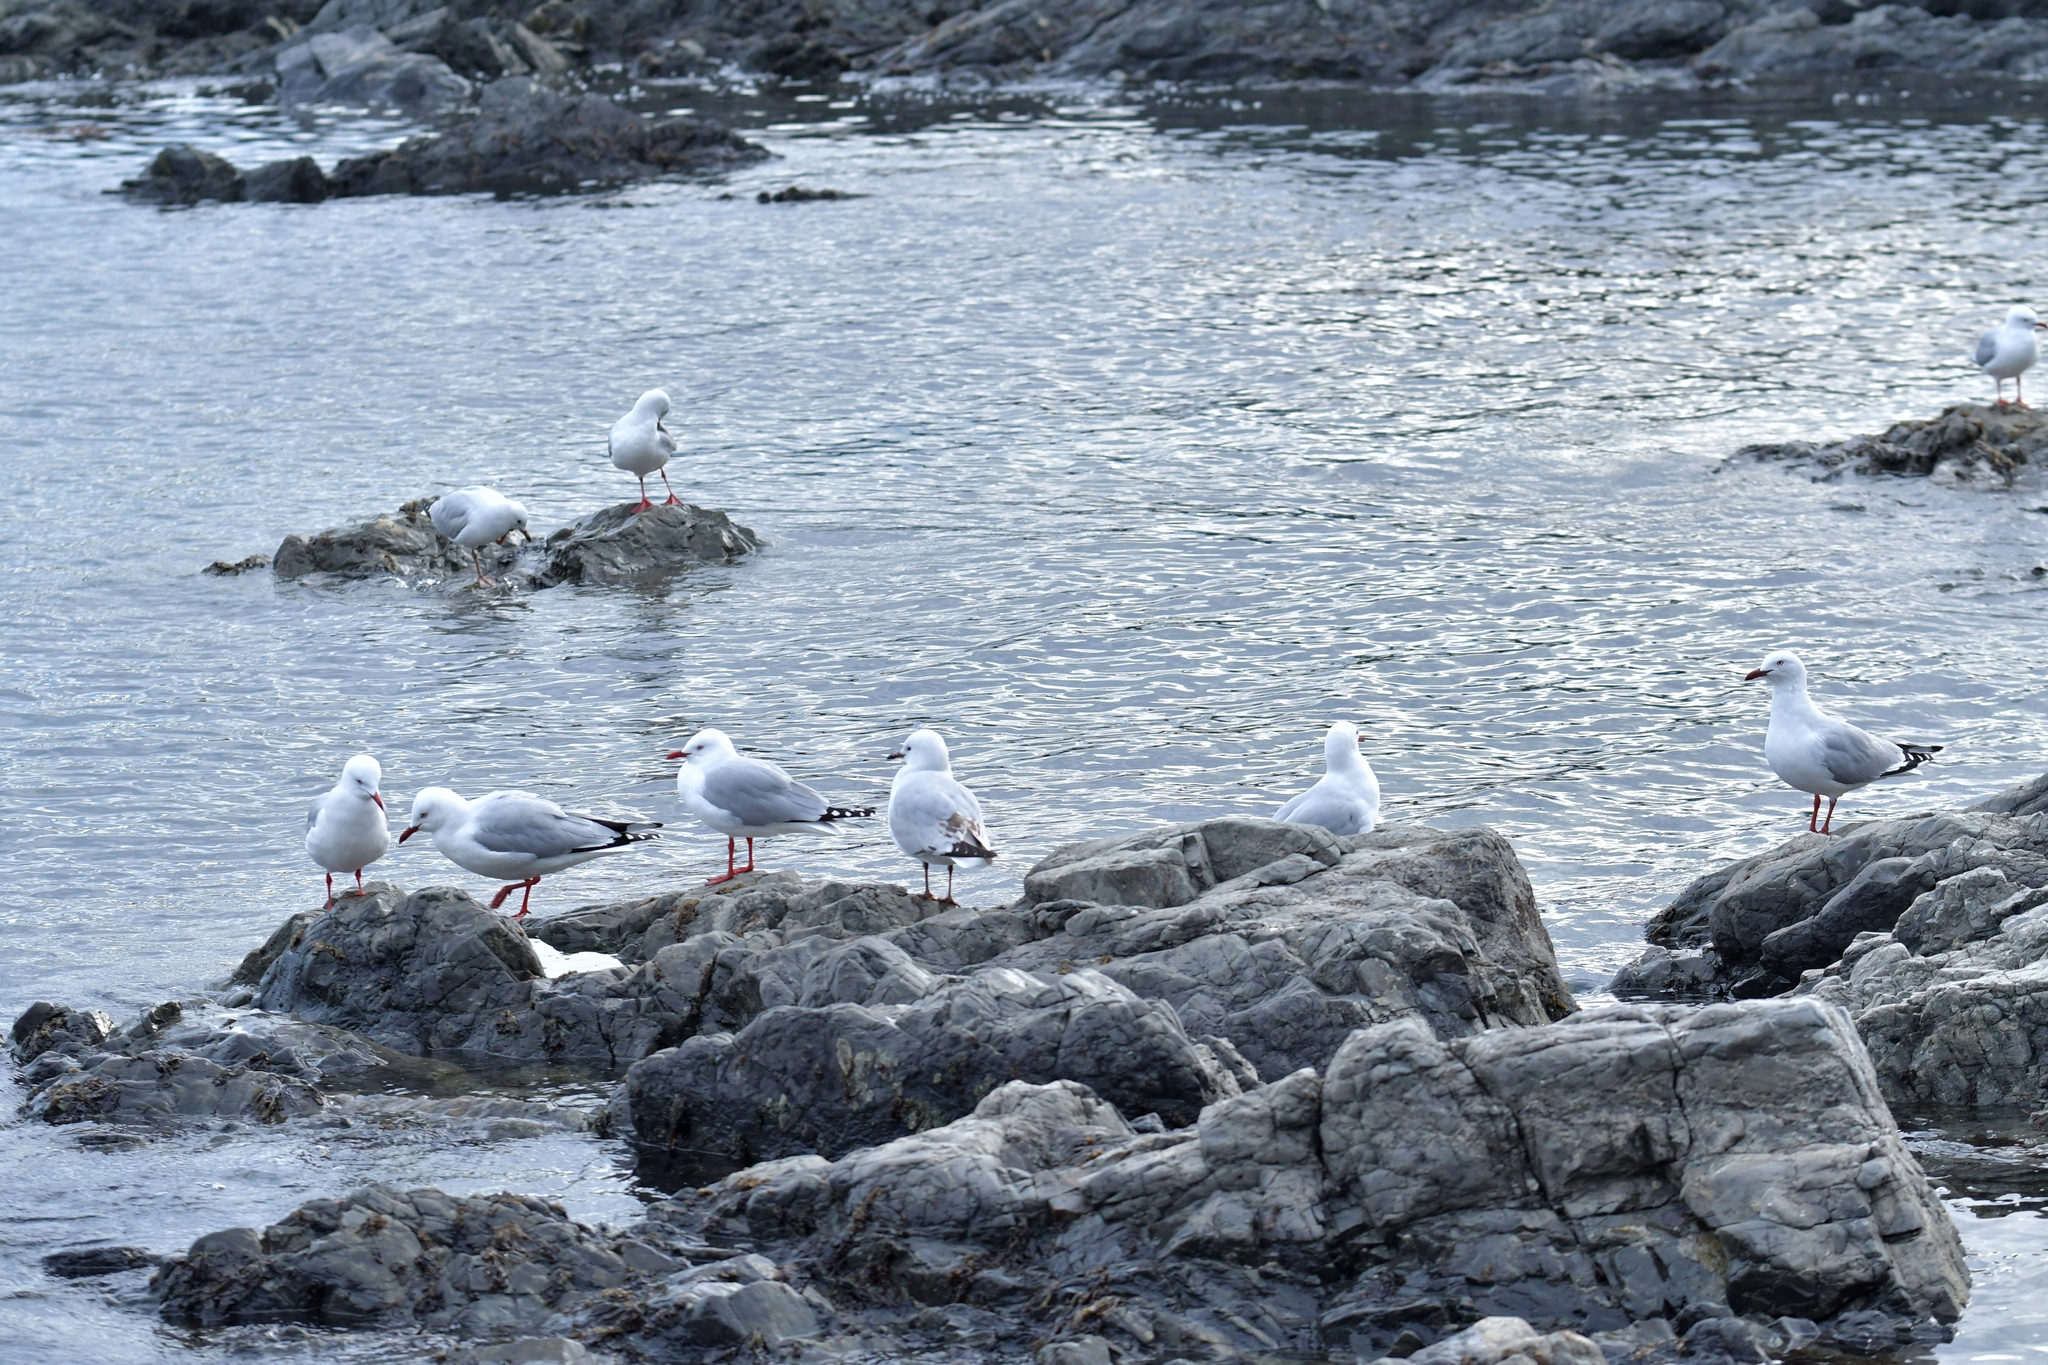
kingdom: Animalia
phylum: Chordata
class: Aves
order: Charadriiformes
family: Laridae
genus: Chroicocephalus
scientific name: Chroicocephalus novaehollandiae
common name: Silver gull
